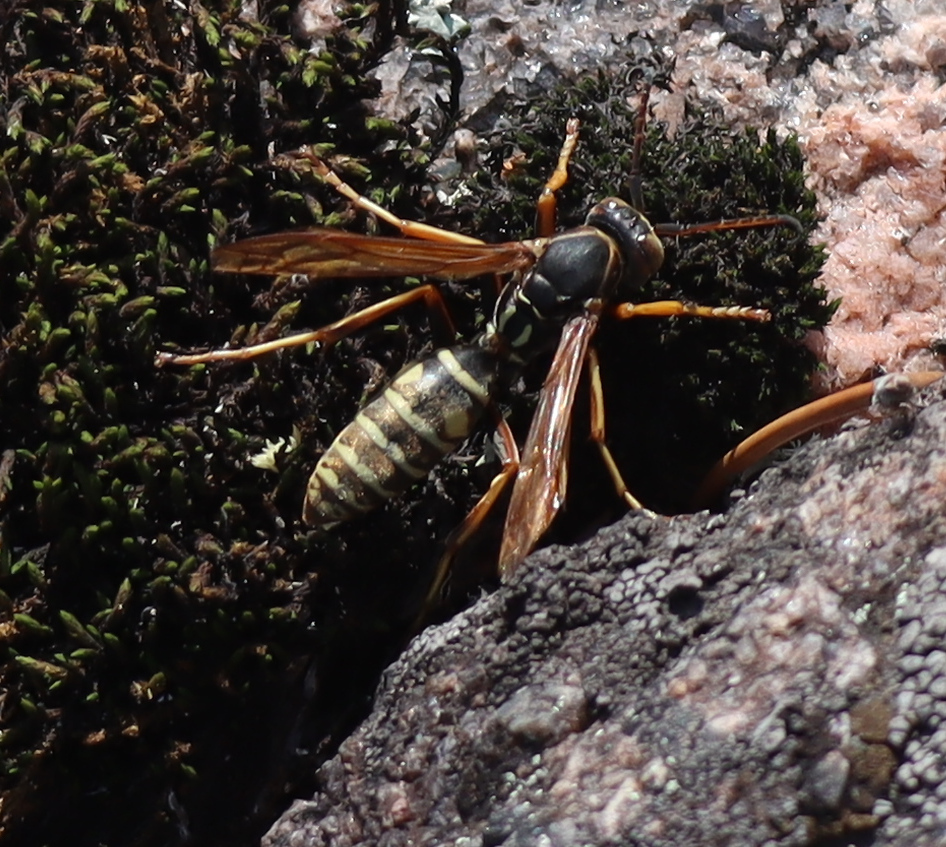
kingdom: Animalia
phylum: Arthropoda
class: Insecta
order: Hymenoptera
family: Eumenidae
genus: Polistes
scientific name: Polistes fuscatus
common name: Dark paper wasp
